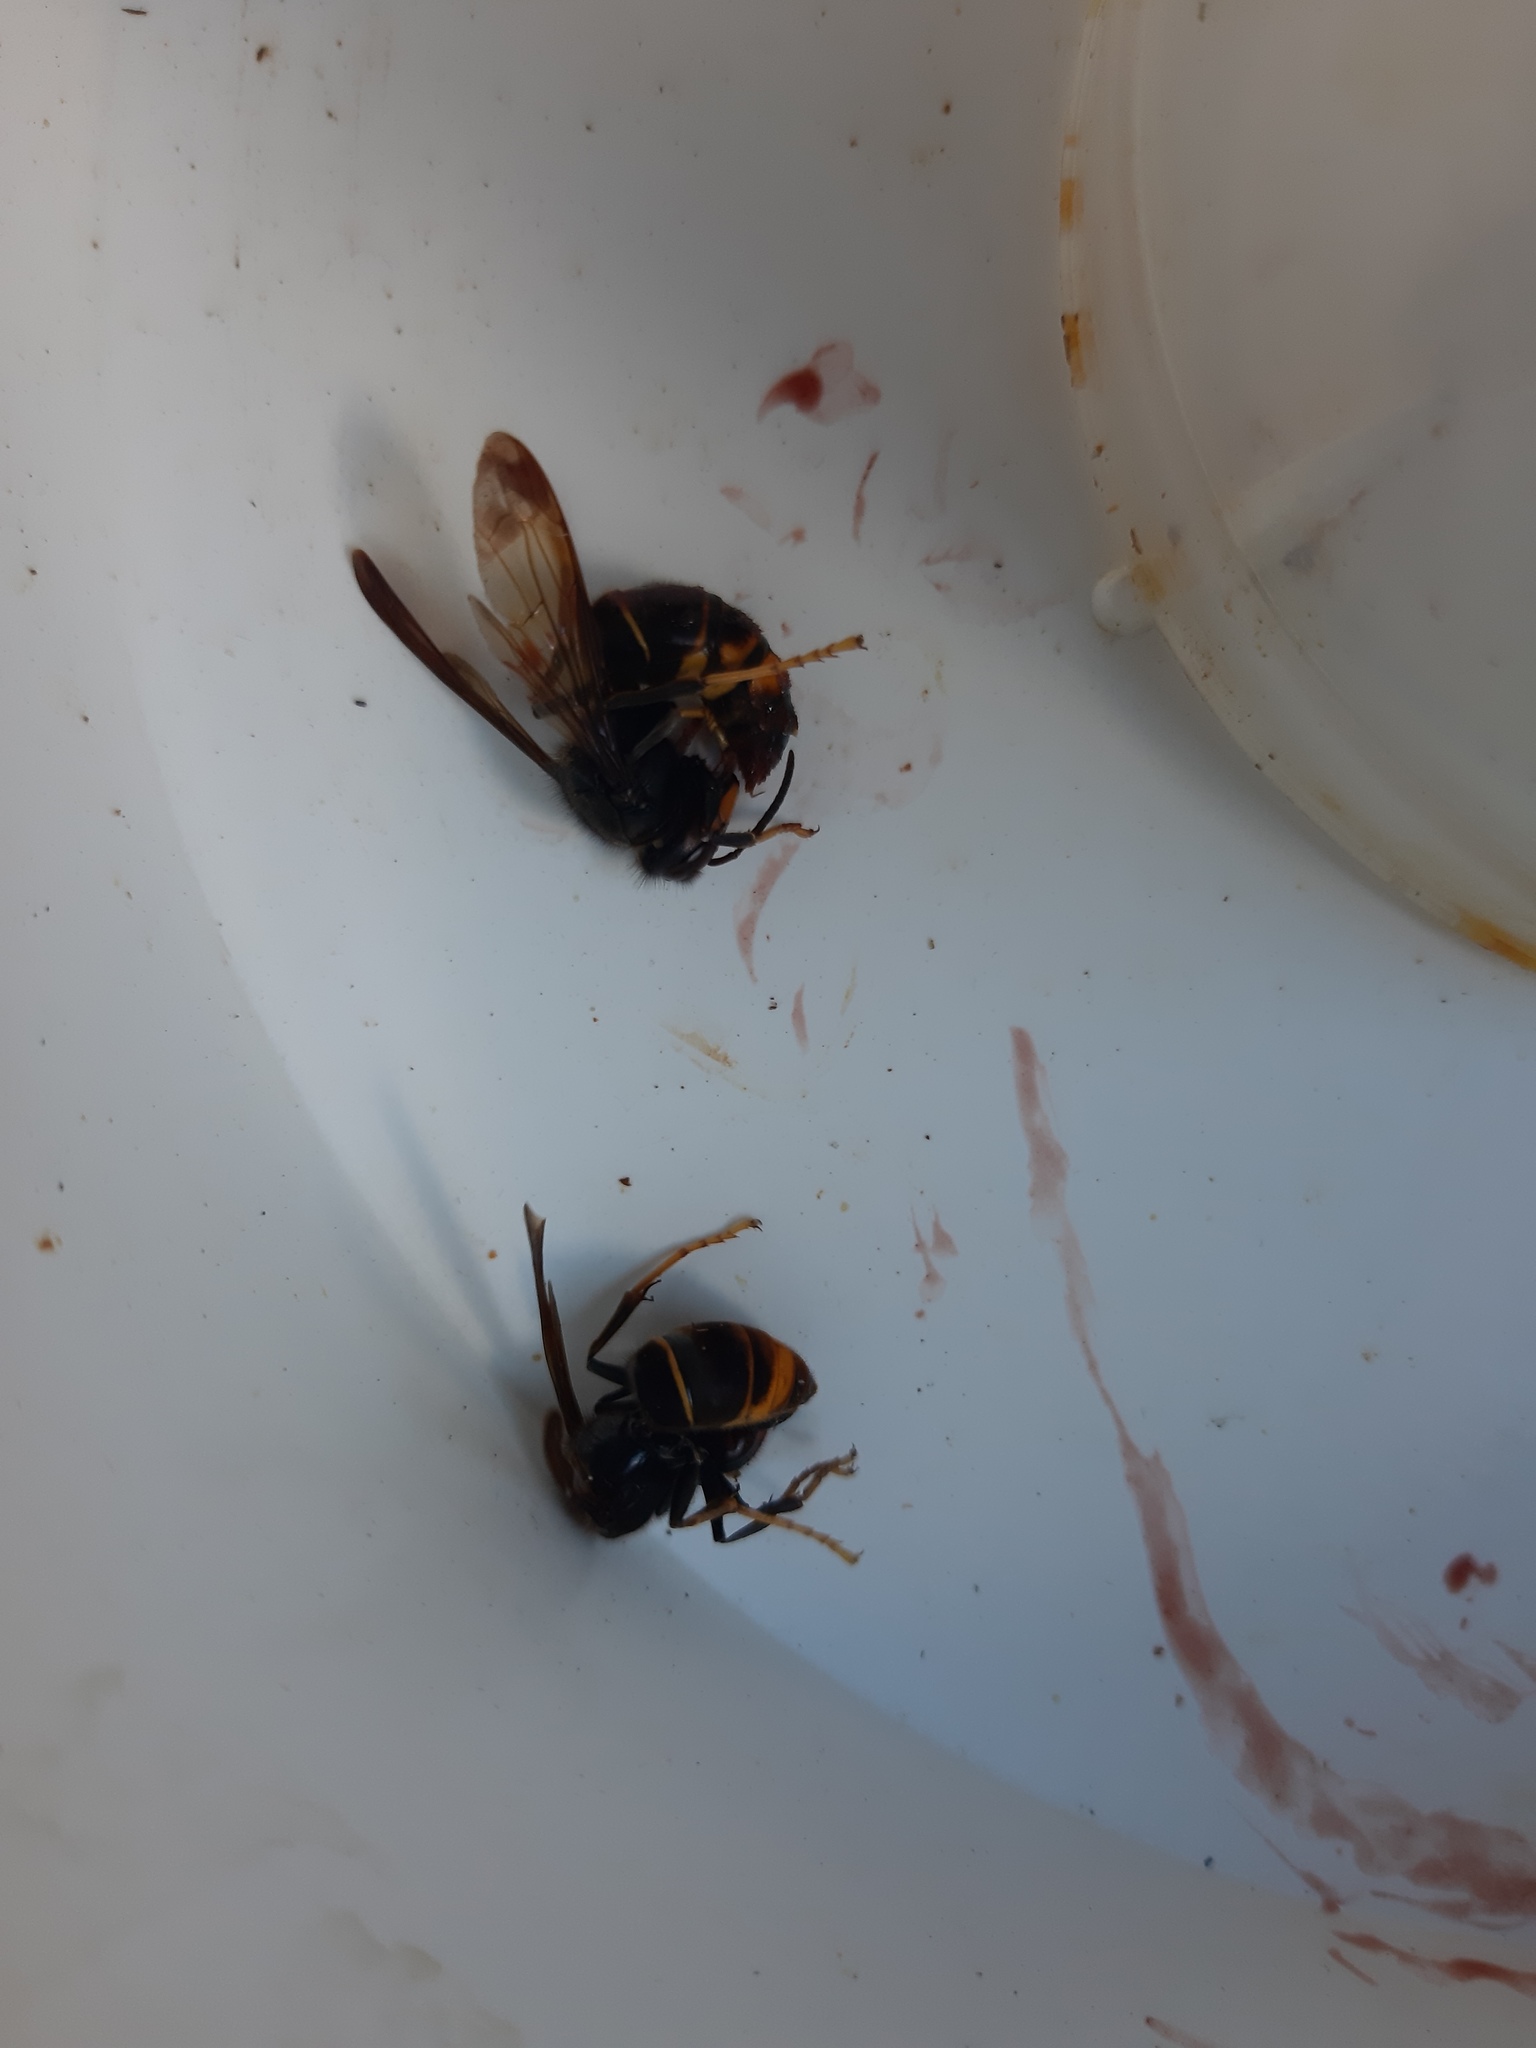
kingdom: Animalia
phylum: Arthropoda
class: Insecta
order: Hymenoptera
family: Vespidae
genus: Vespa
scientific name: Vespa velutina
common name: Asian hornet
